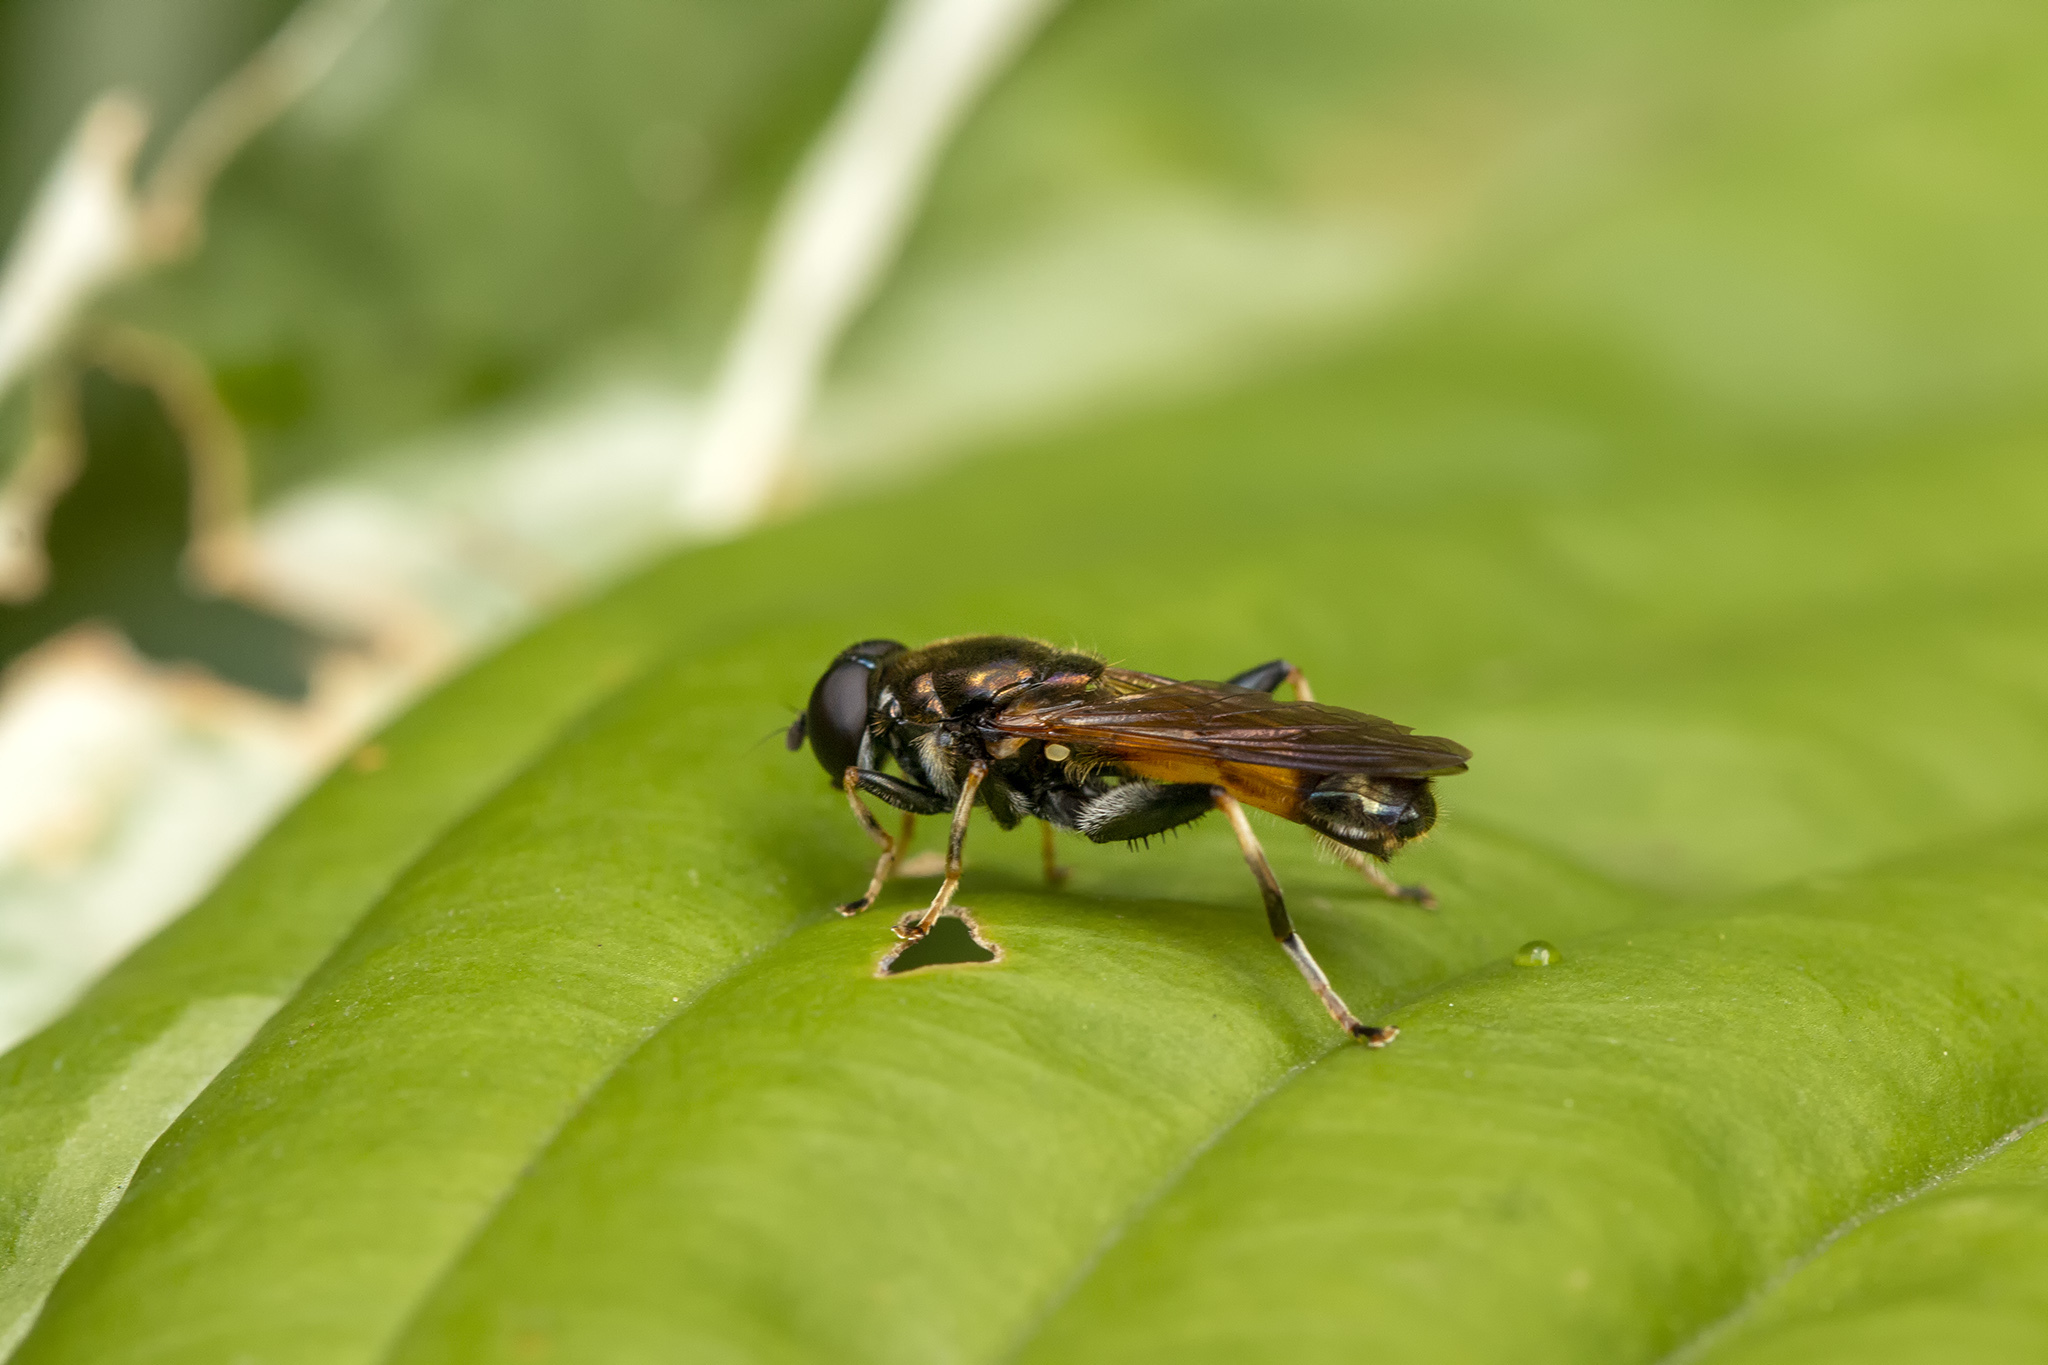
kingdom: Animalia
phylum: Arthropoda
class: Insecta
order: Diptera
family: Syrphidae
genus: Xylota
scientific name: Xylota segnis
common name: Brown-toed forest fly
